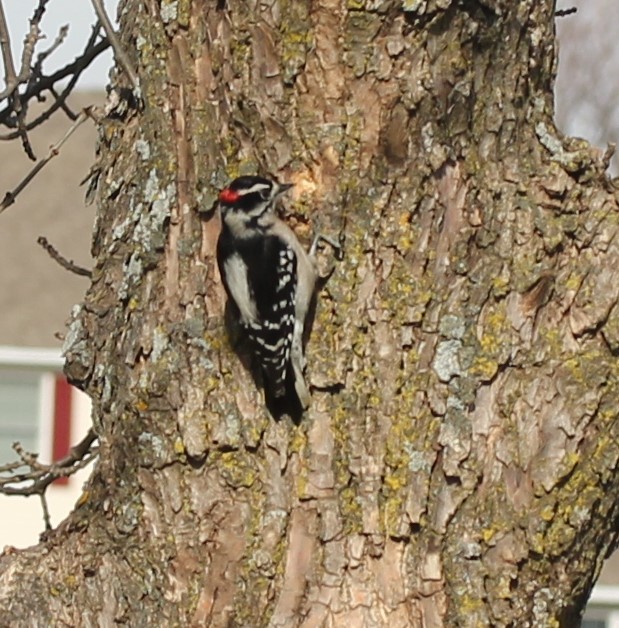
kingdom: Animalia
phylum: Chordata
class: Aves
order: Piciformes
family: Picidae
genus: Dryobates
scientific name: Dryobates pubescens
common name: Downy woodpecker
